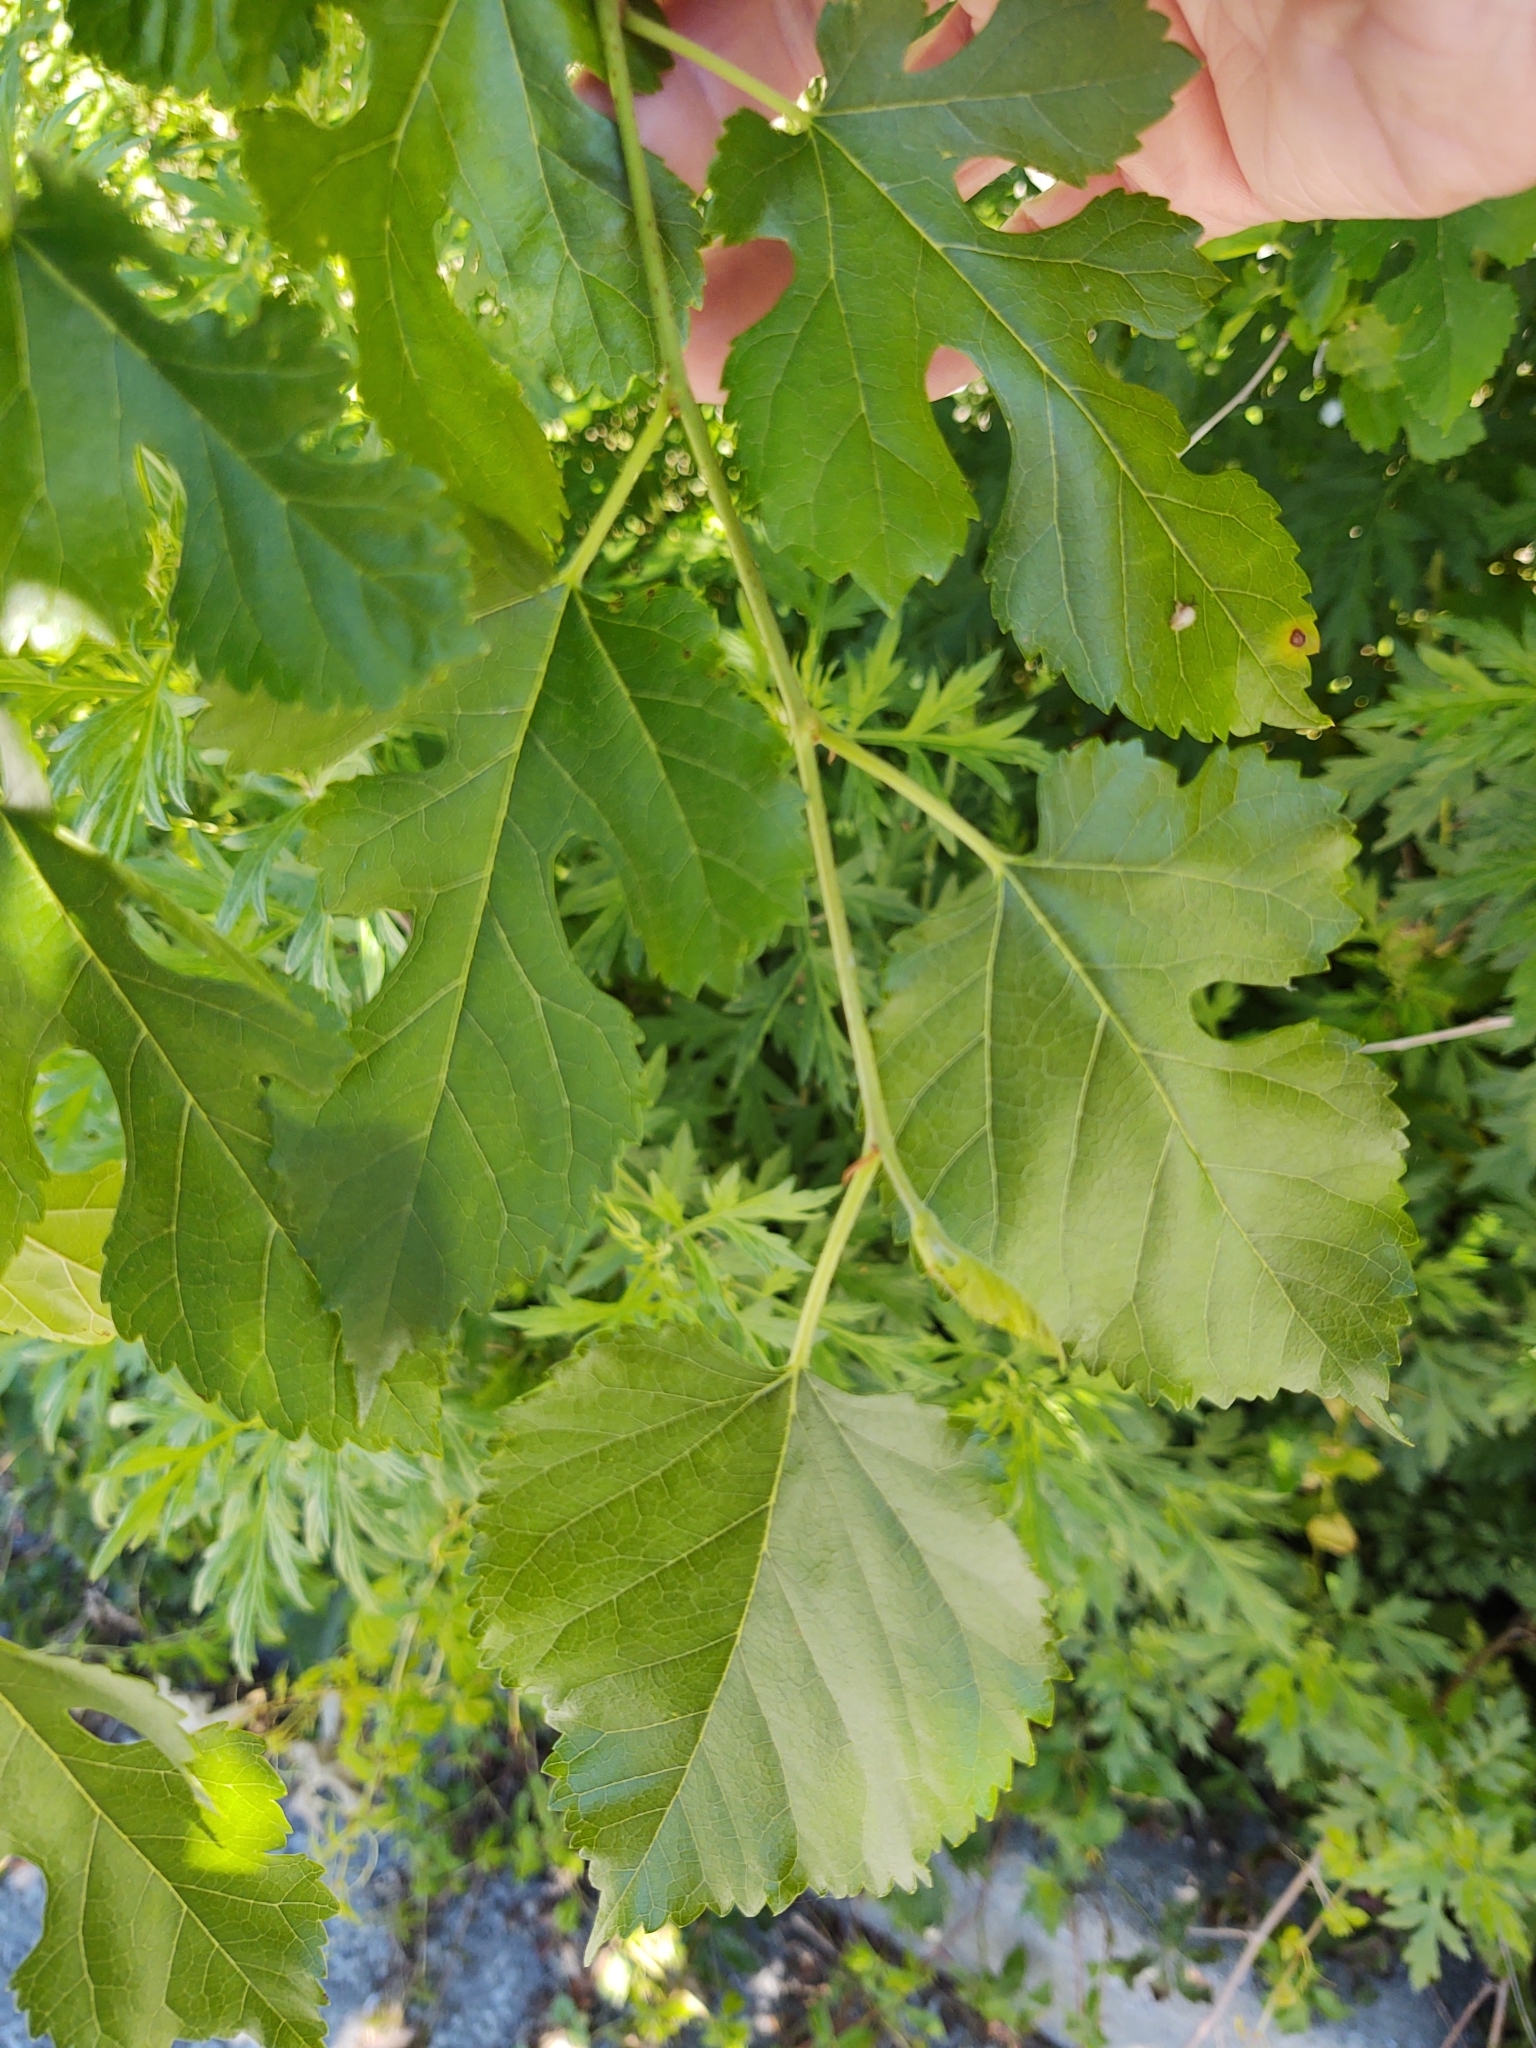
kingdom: Plantae
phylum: Tracheophyta
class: Magnoliopsida
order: Rosales
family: Moraceae
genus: Morus
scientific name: Morus alba
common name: White mulberry
